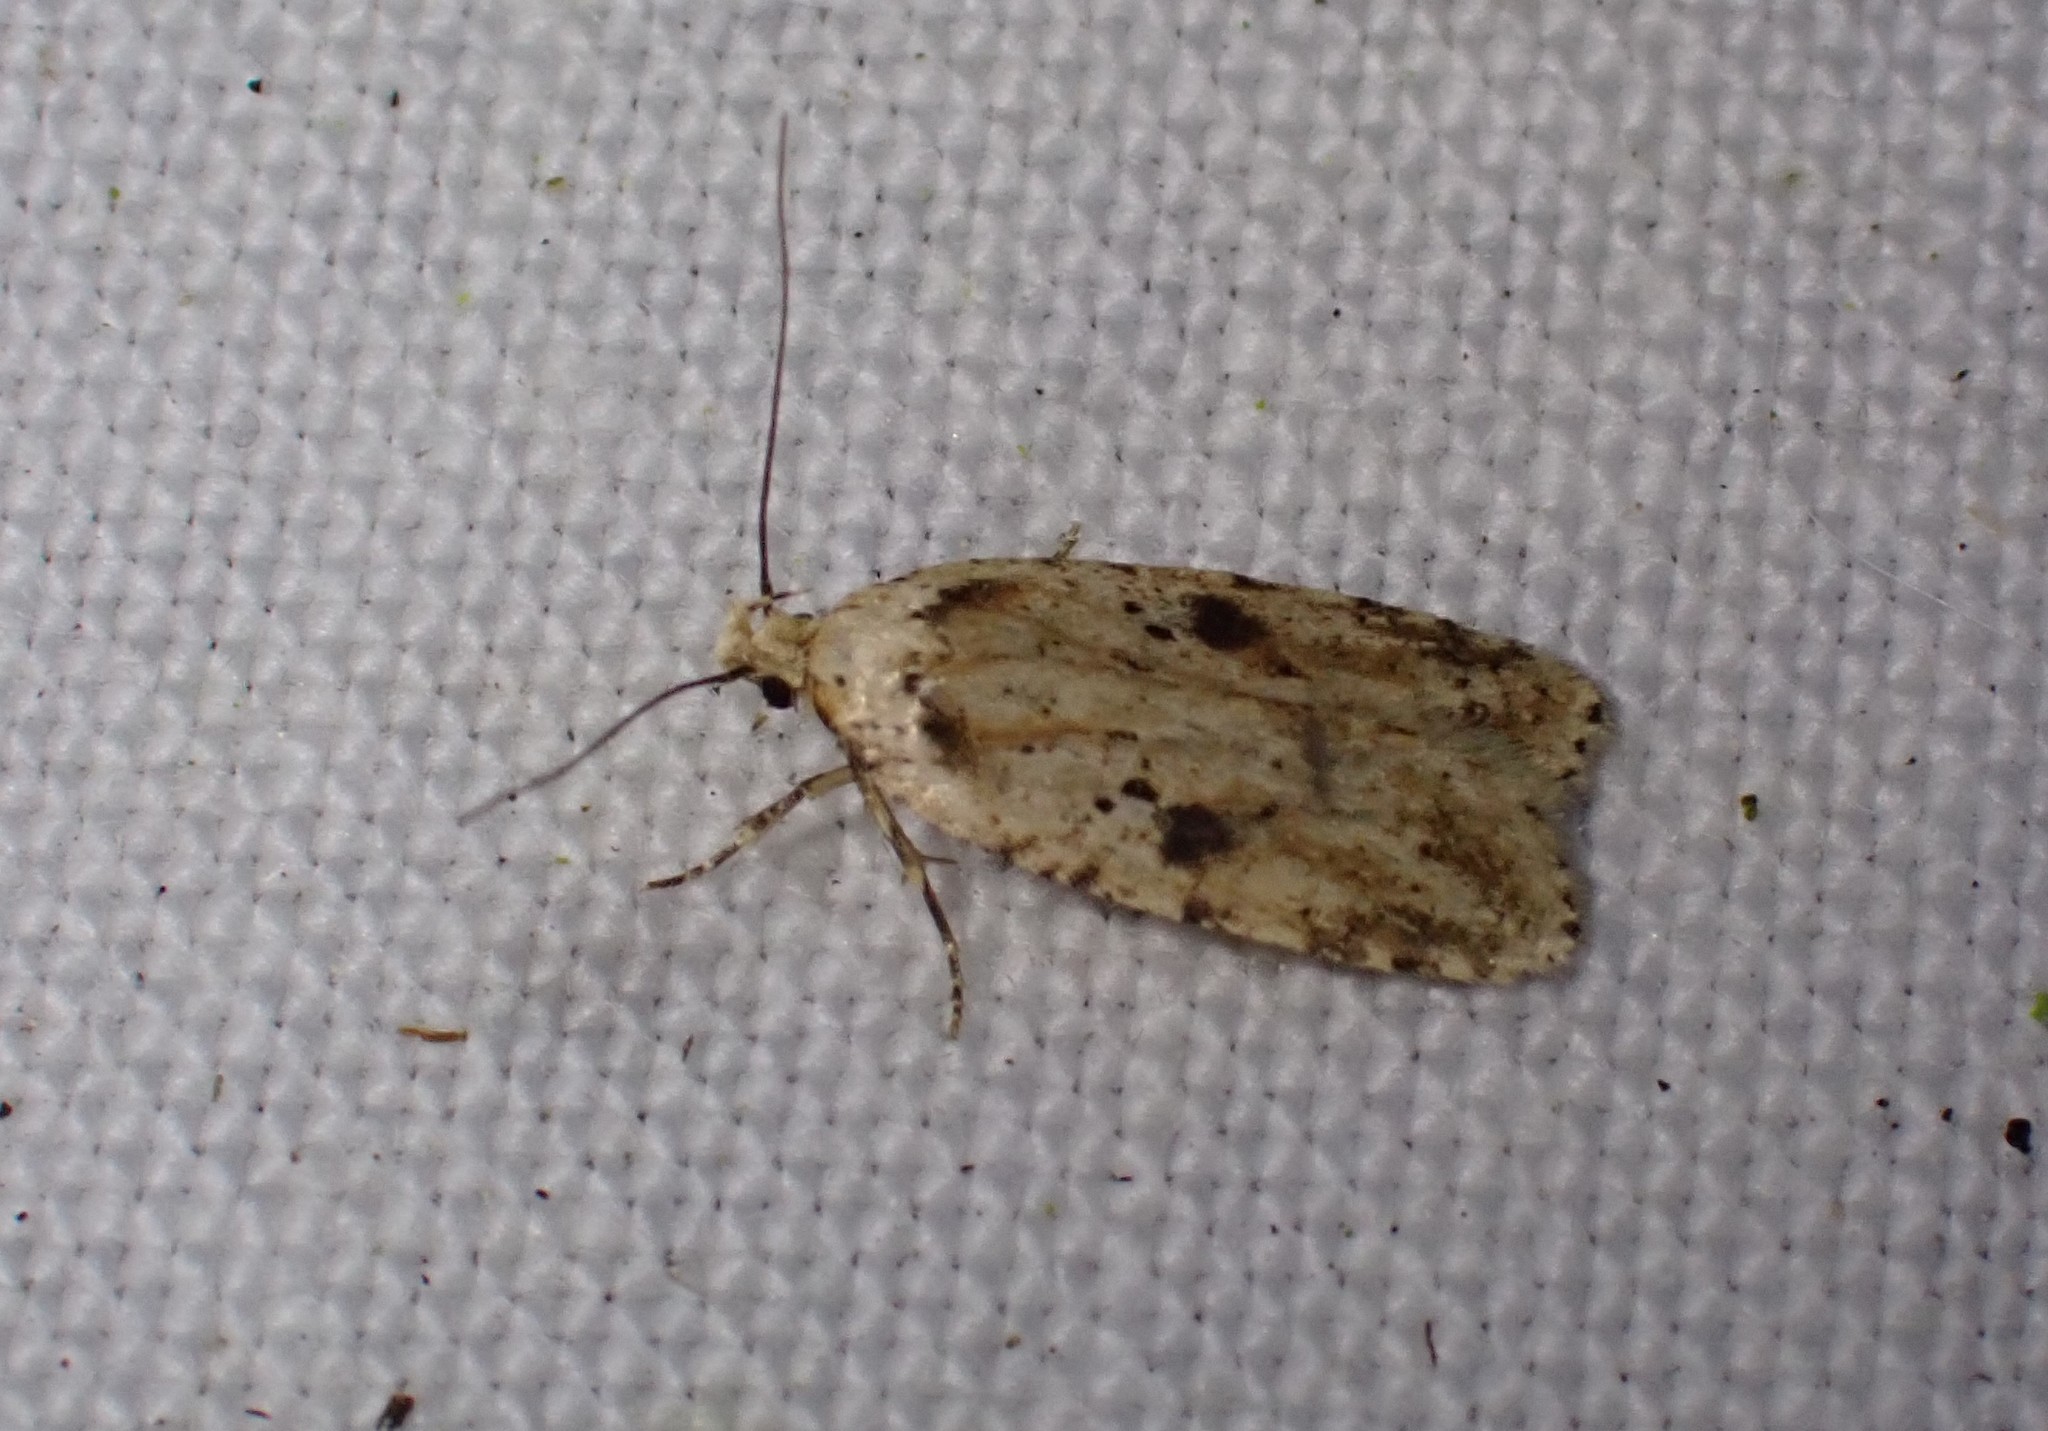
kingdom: Animalia
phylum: Arthropoda
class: Insecta
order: Lepidoptera
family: Depressariidae
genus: Agonopterix
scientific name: Agonopterix arenella
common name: Brindled flat-body
